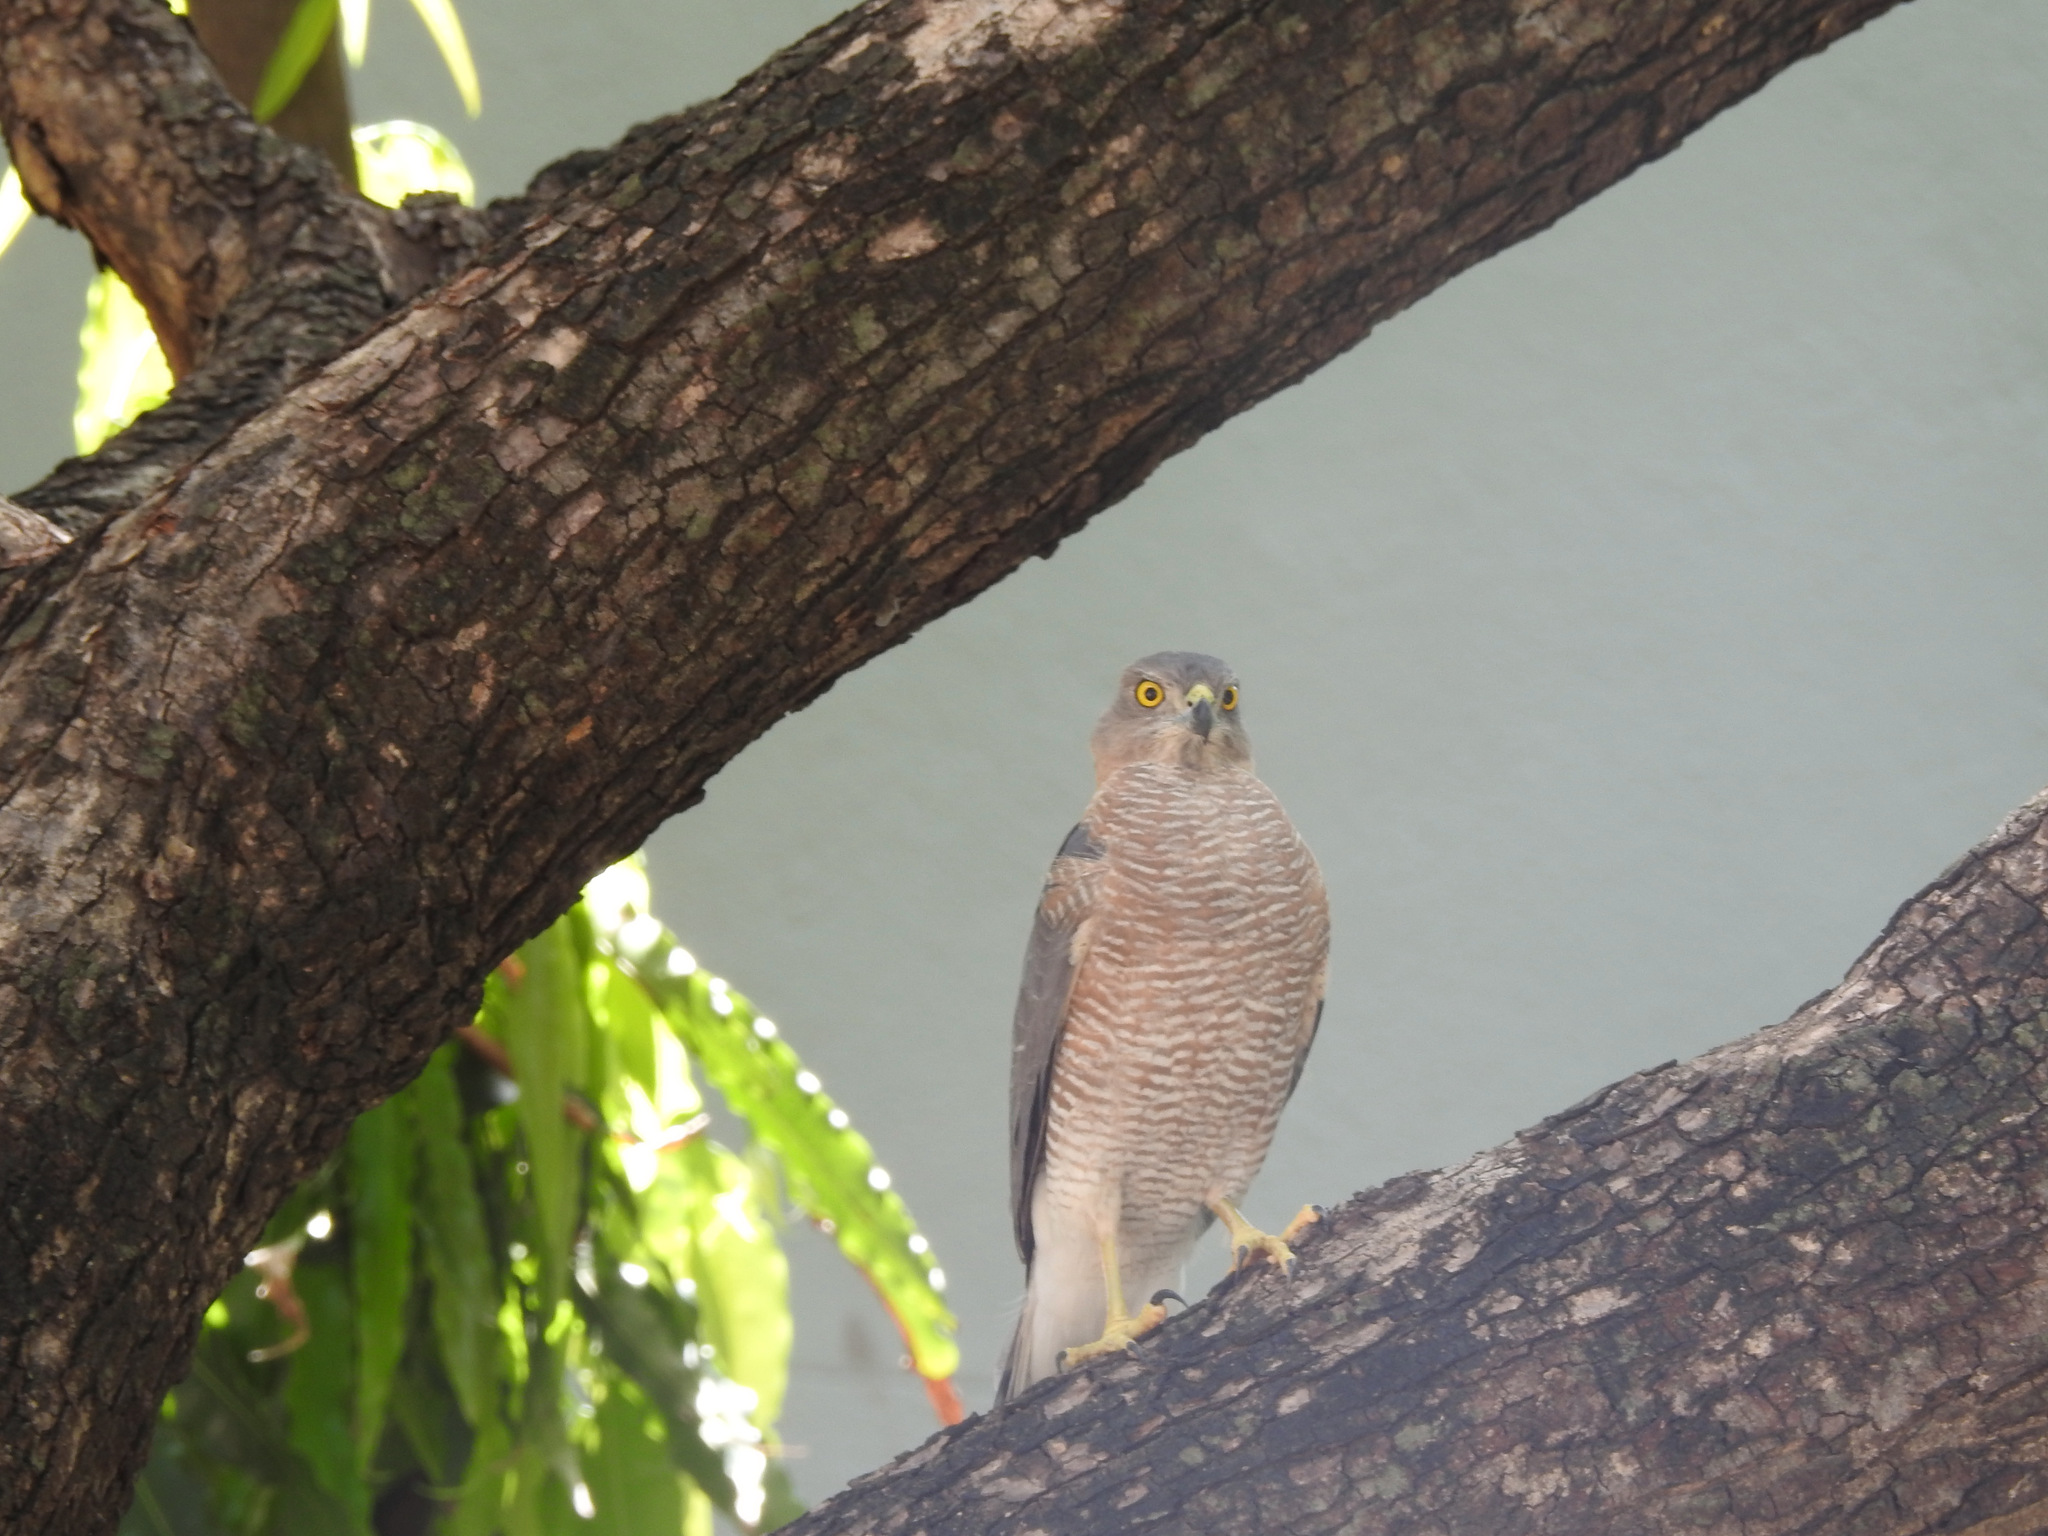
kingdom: Animalia
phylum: Chordata
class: Aves
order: Accipitriformes
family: Accipitridae
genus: Accipiter
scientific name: Accipiter badius
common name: Shikra
